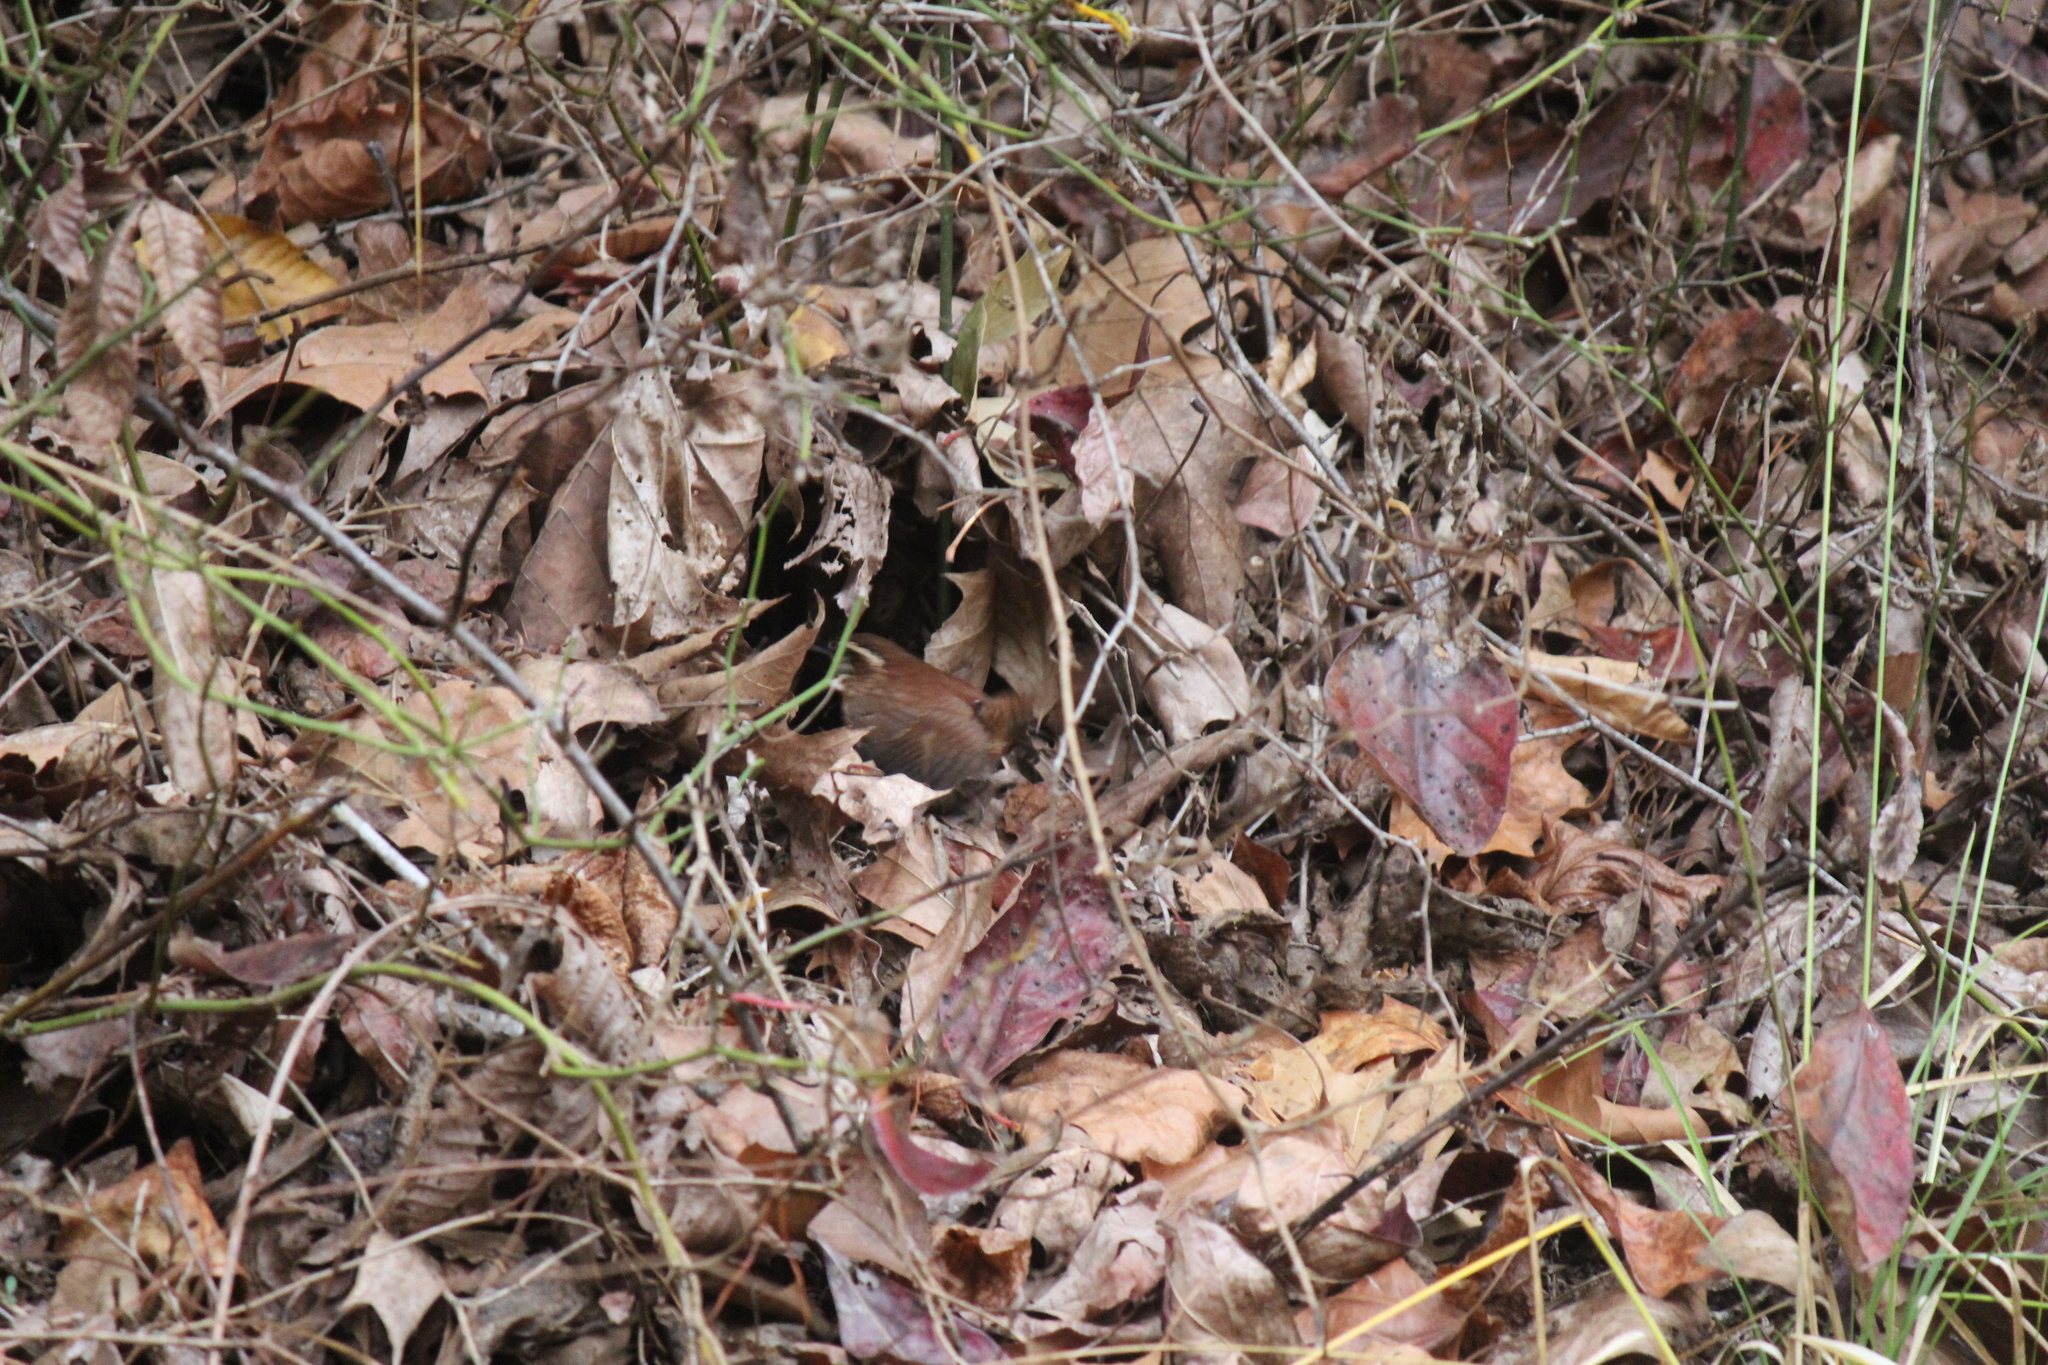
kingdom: Animalia
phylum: Chordata
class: Aves
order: Passeriformes
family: Troglodytidae
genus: Thryothorus
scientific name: Thryothorus ludovicianus
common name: Carolina wren
